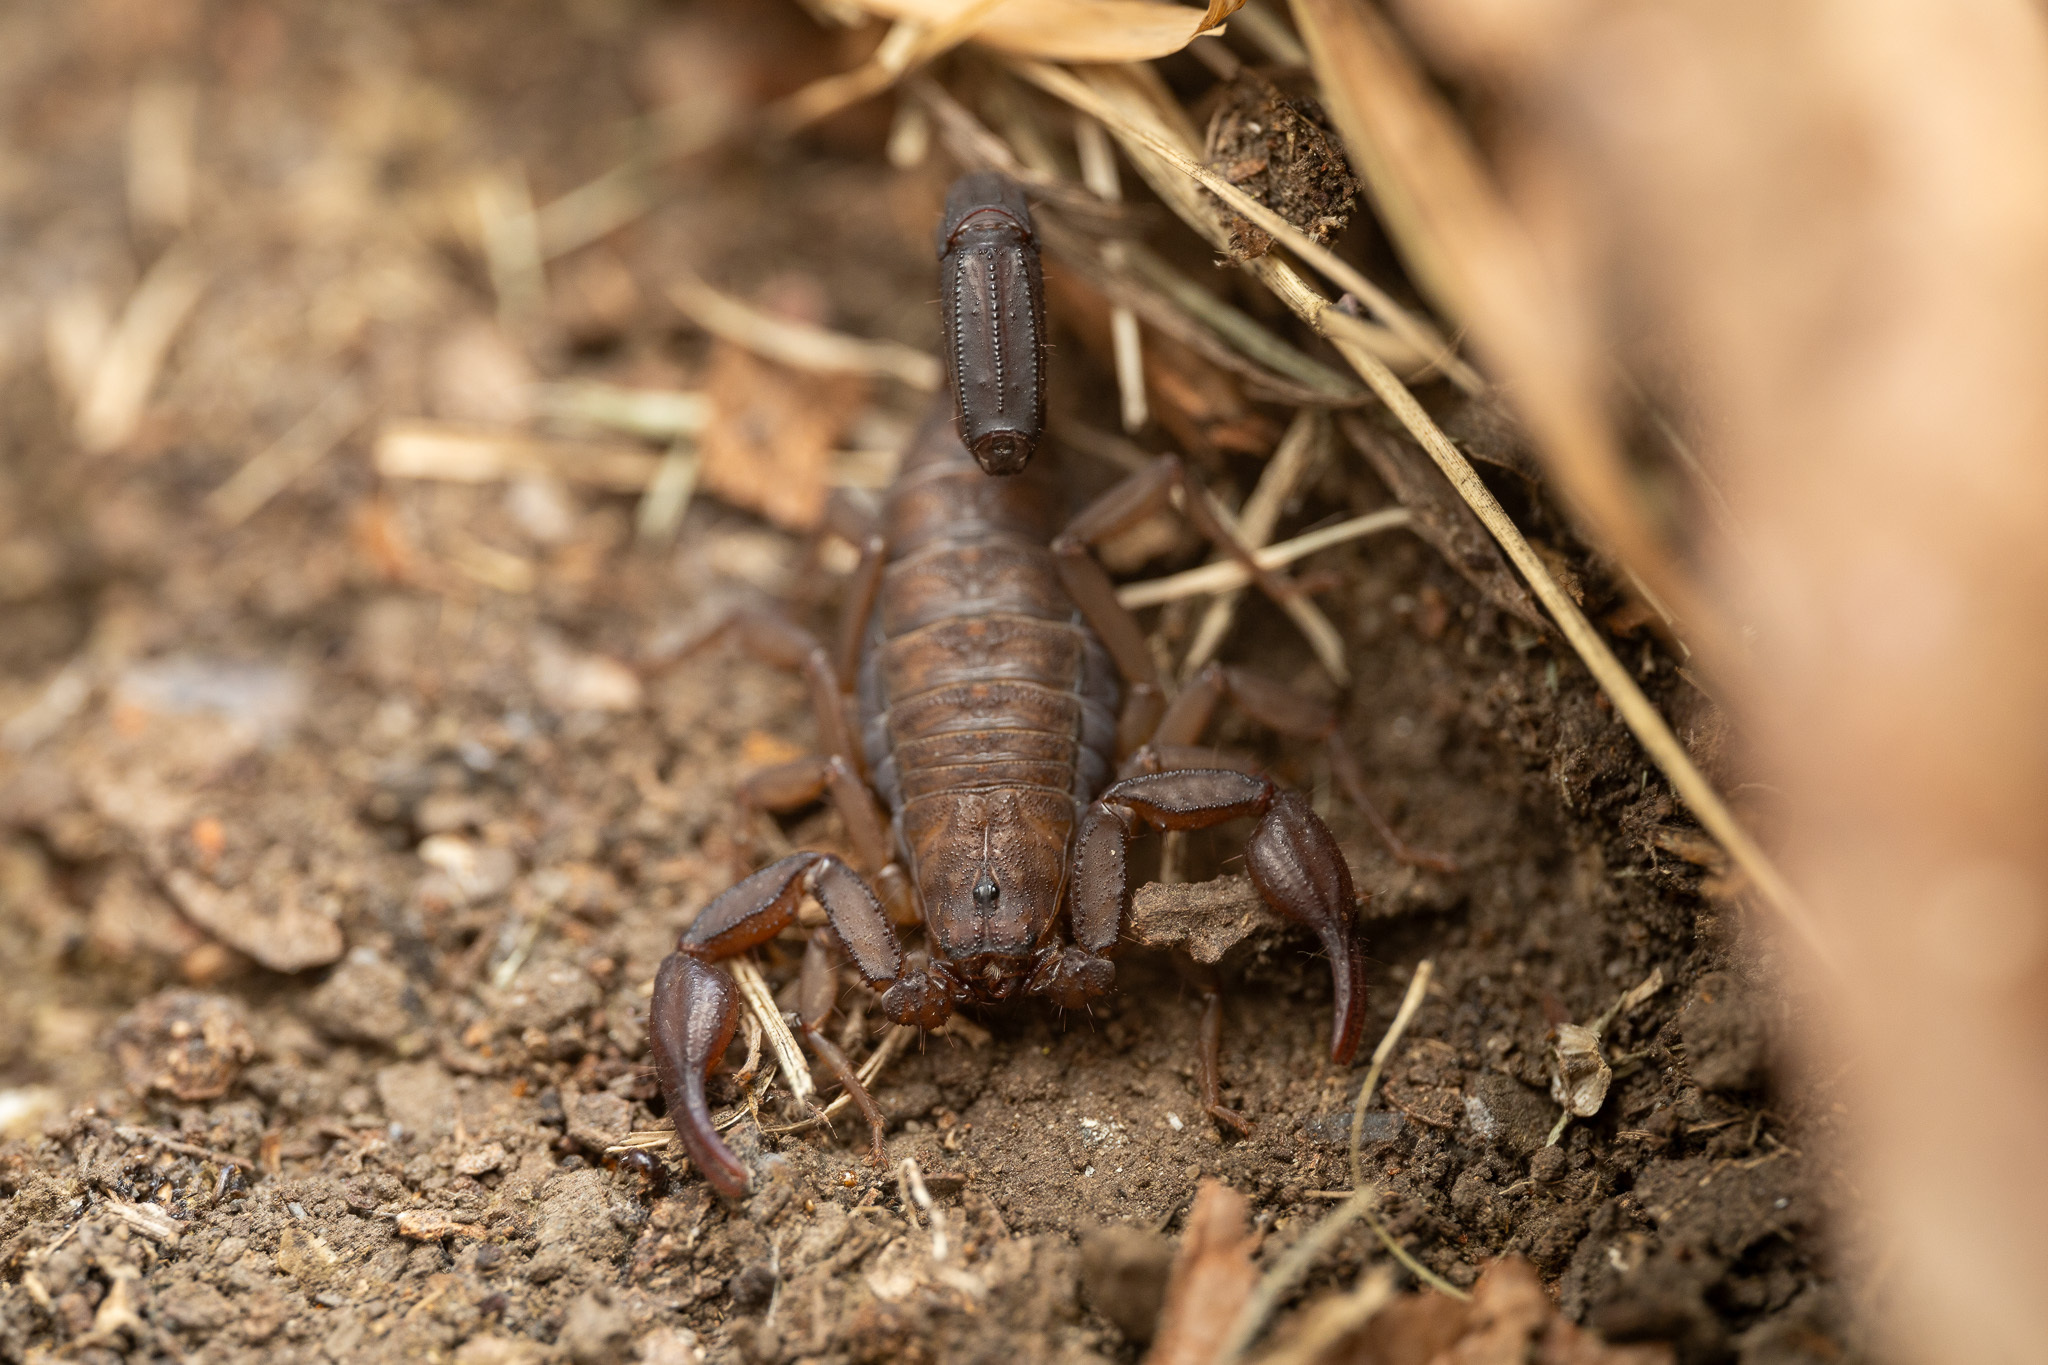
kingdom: Animalia
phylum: Arthropoda
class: Arachnida
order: Scorpiones
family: Vaejovidae
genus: Vaejovis
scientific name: Vaejovis mexicanus
